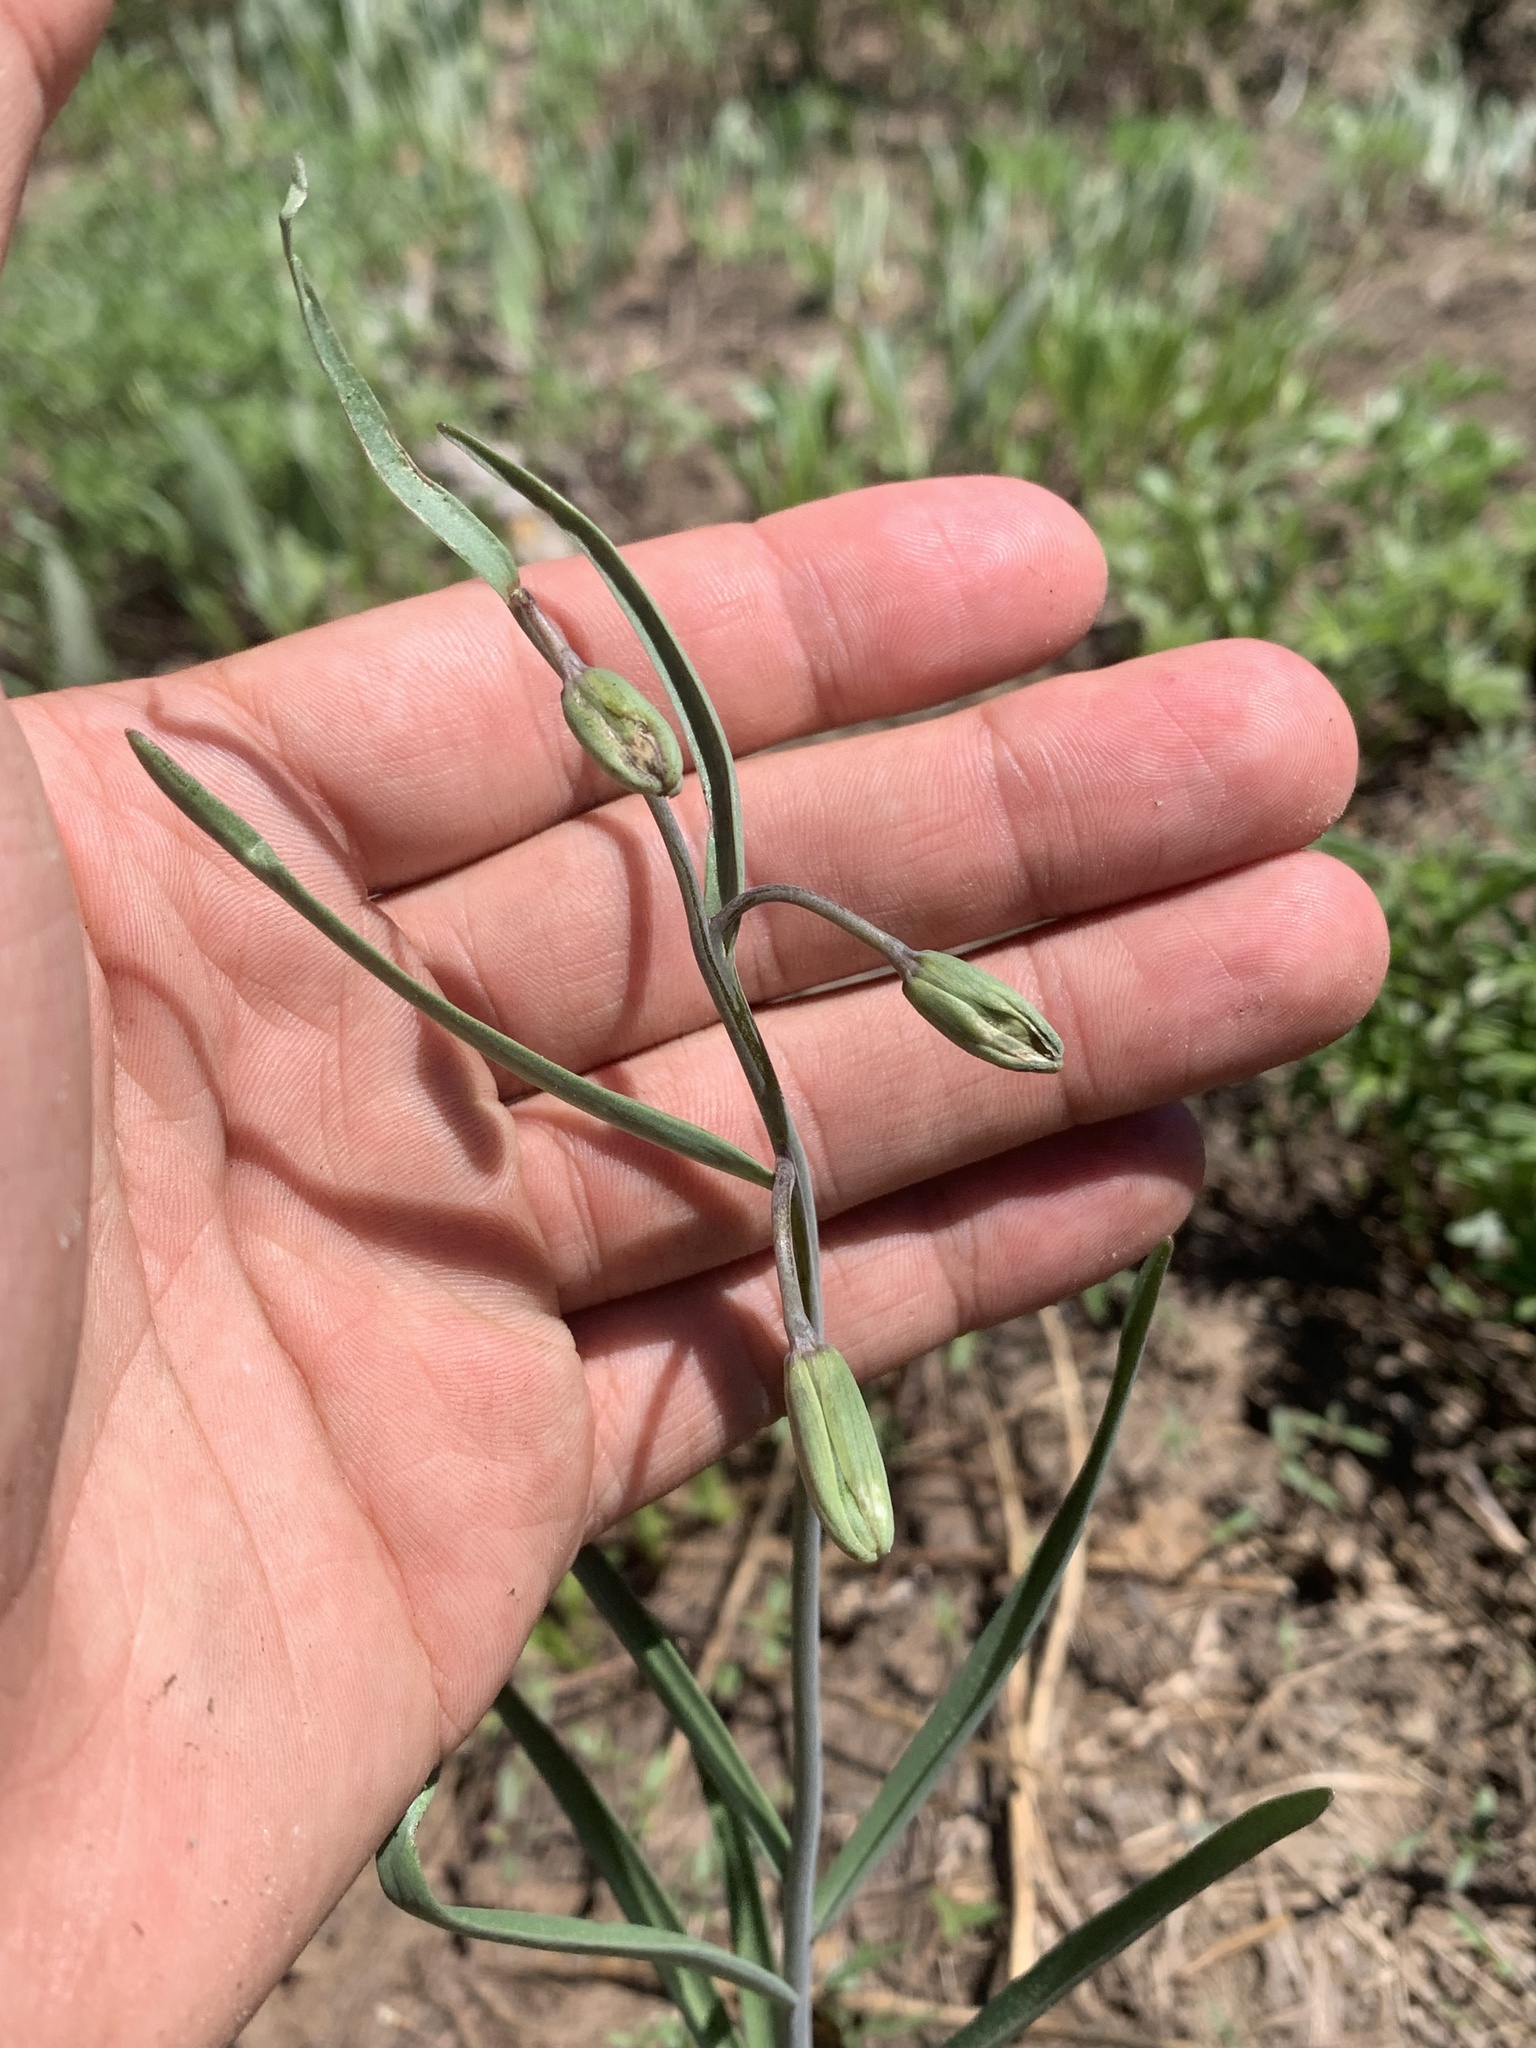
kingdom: Plantae
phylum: Tracheophyta
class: Liliopsida
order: Liliales
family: Liliaceae
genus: Fritillaria
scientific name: Fritillaria atropurpurea
